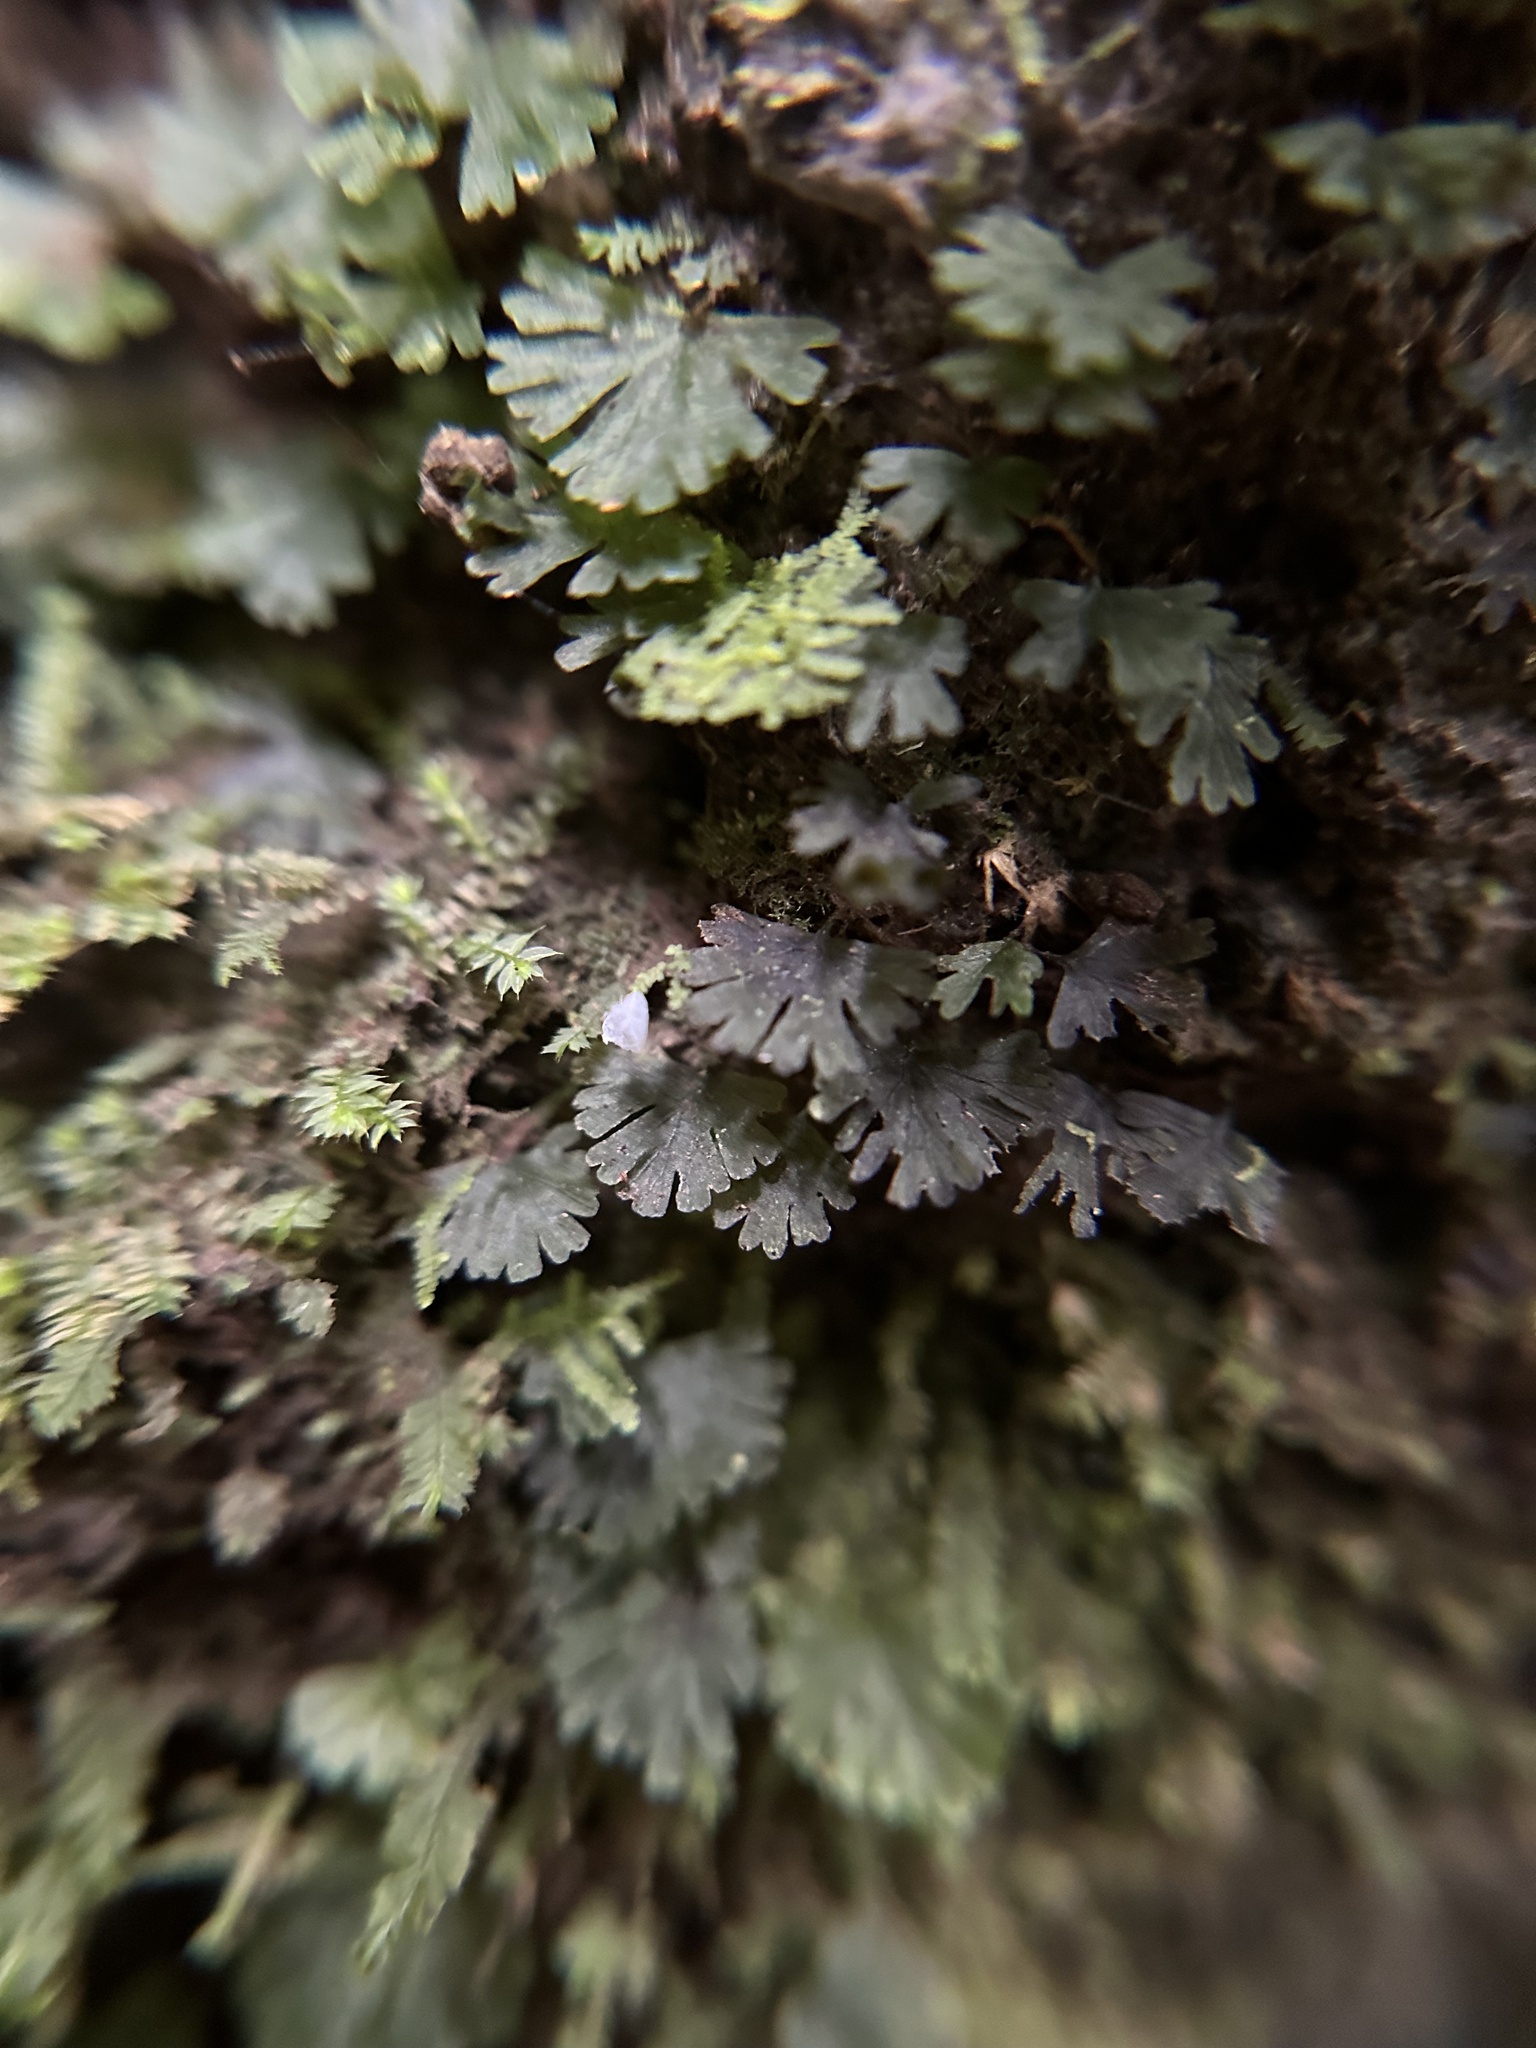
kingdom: Plantae
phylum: Tracheophyta
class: Polypodiopsida
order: Hymenophyllales
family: Hymenophyllaceae
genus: Crepidomanes
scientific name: Crepidomanes parvulum
